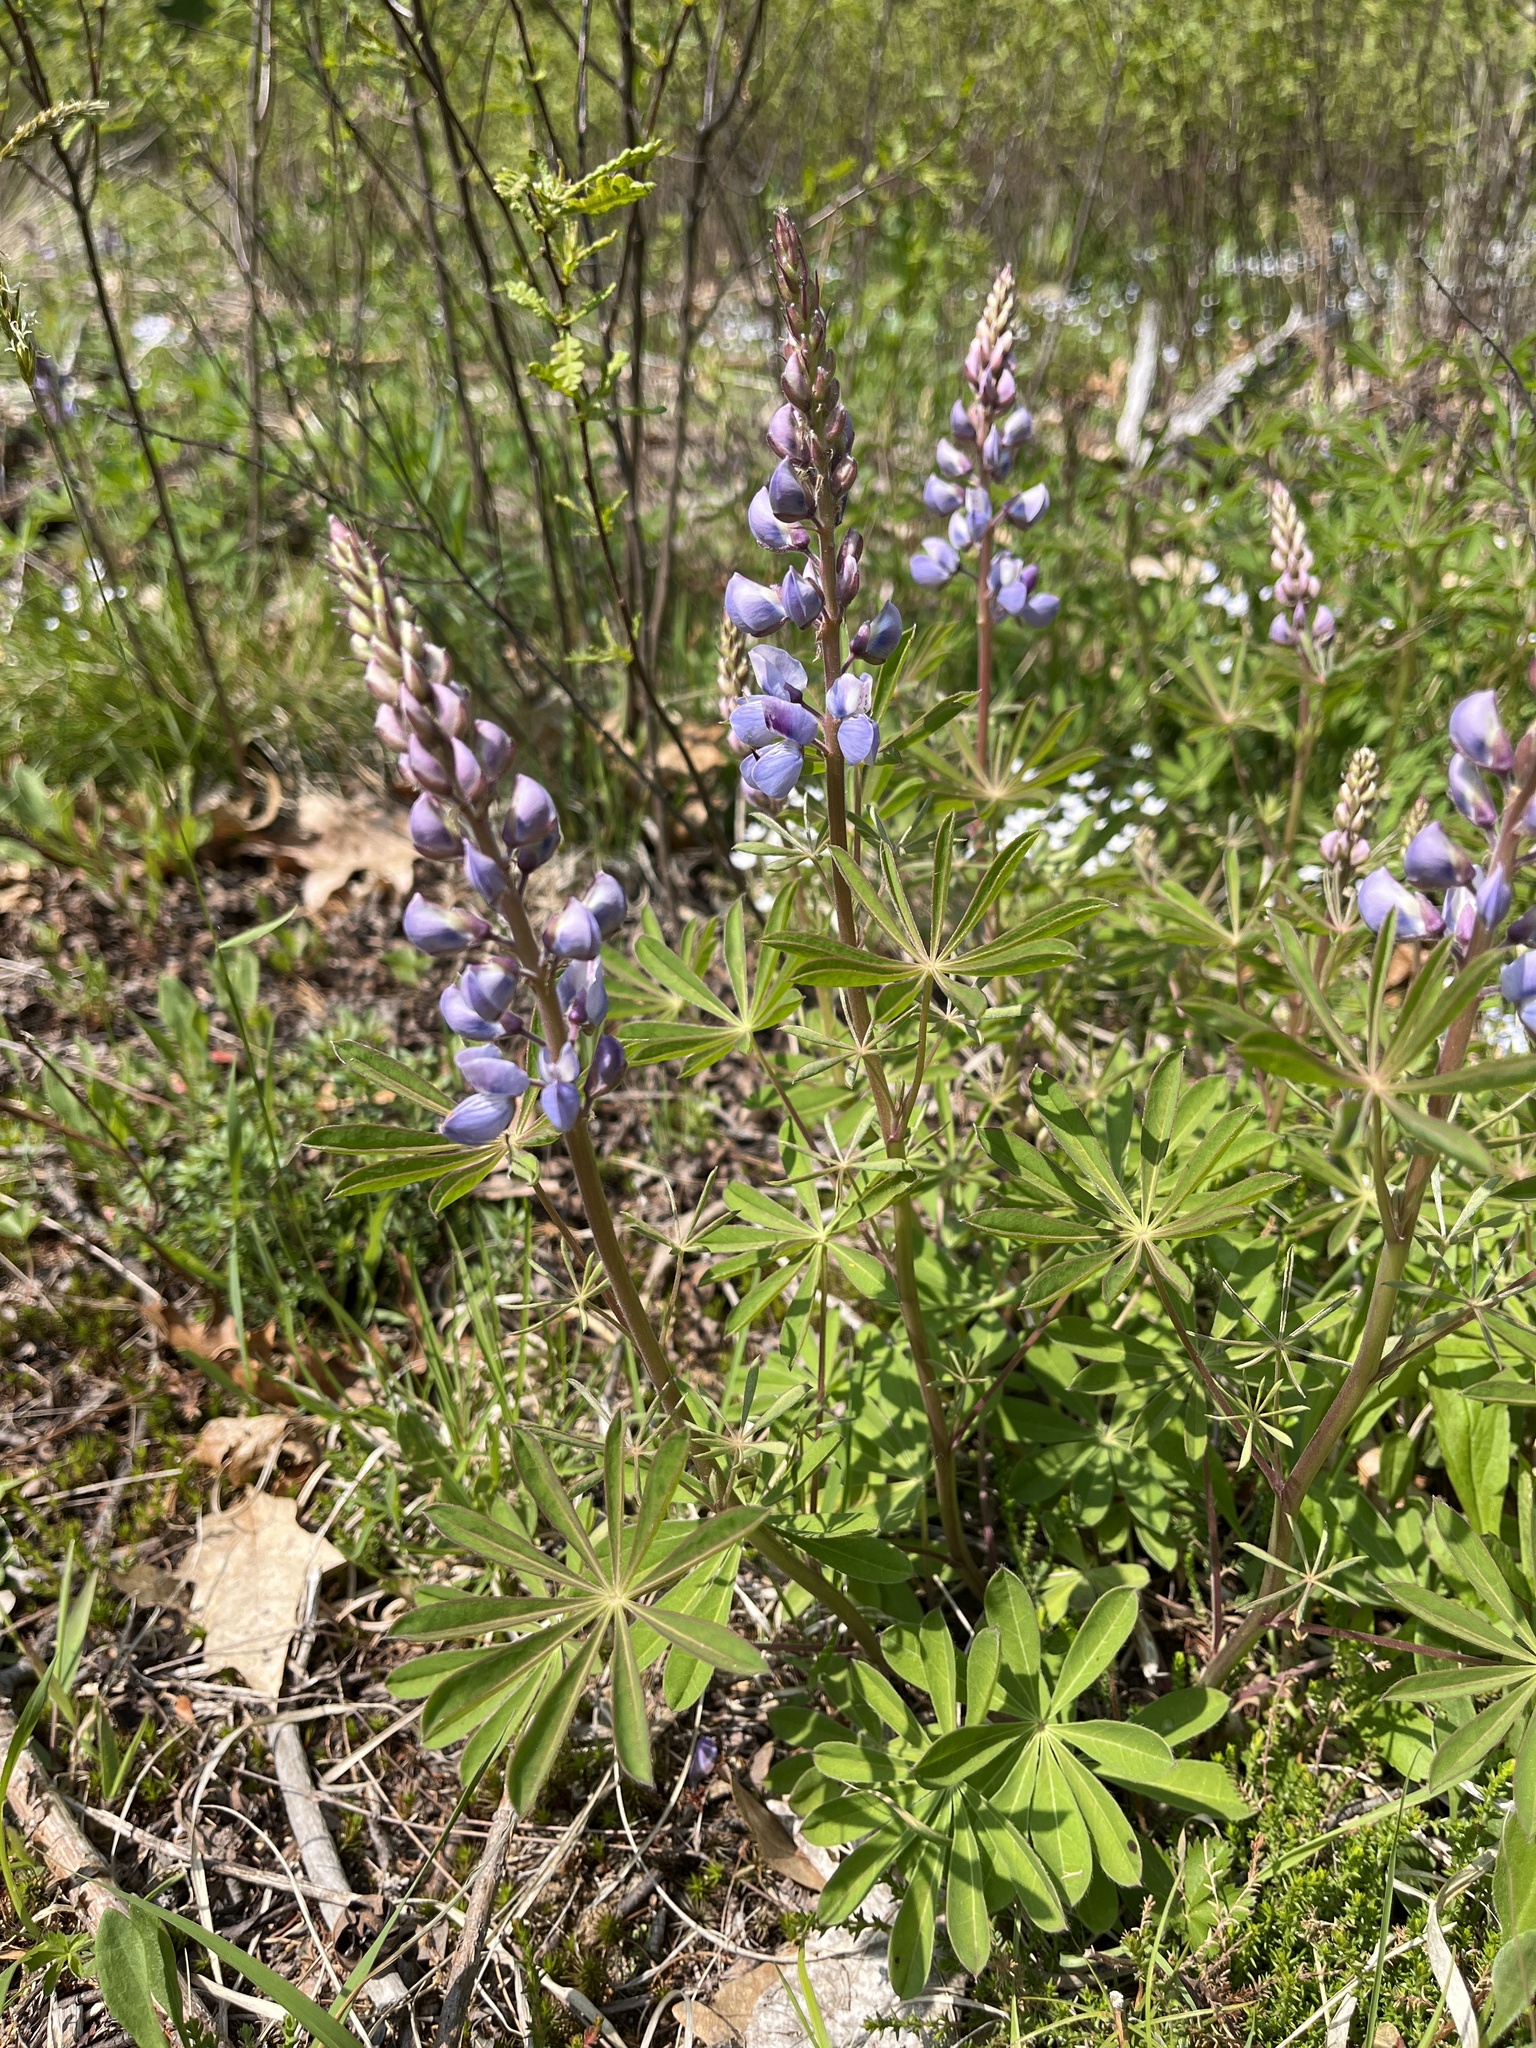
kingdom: Plantae
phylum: Tracheophyta
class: Magnoliopsida
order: Fabales
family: Fabaceae
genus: Lupinus
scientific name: Lupinus perennis
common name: Sundial lupine
